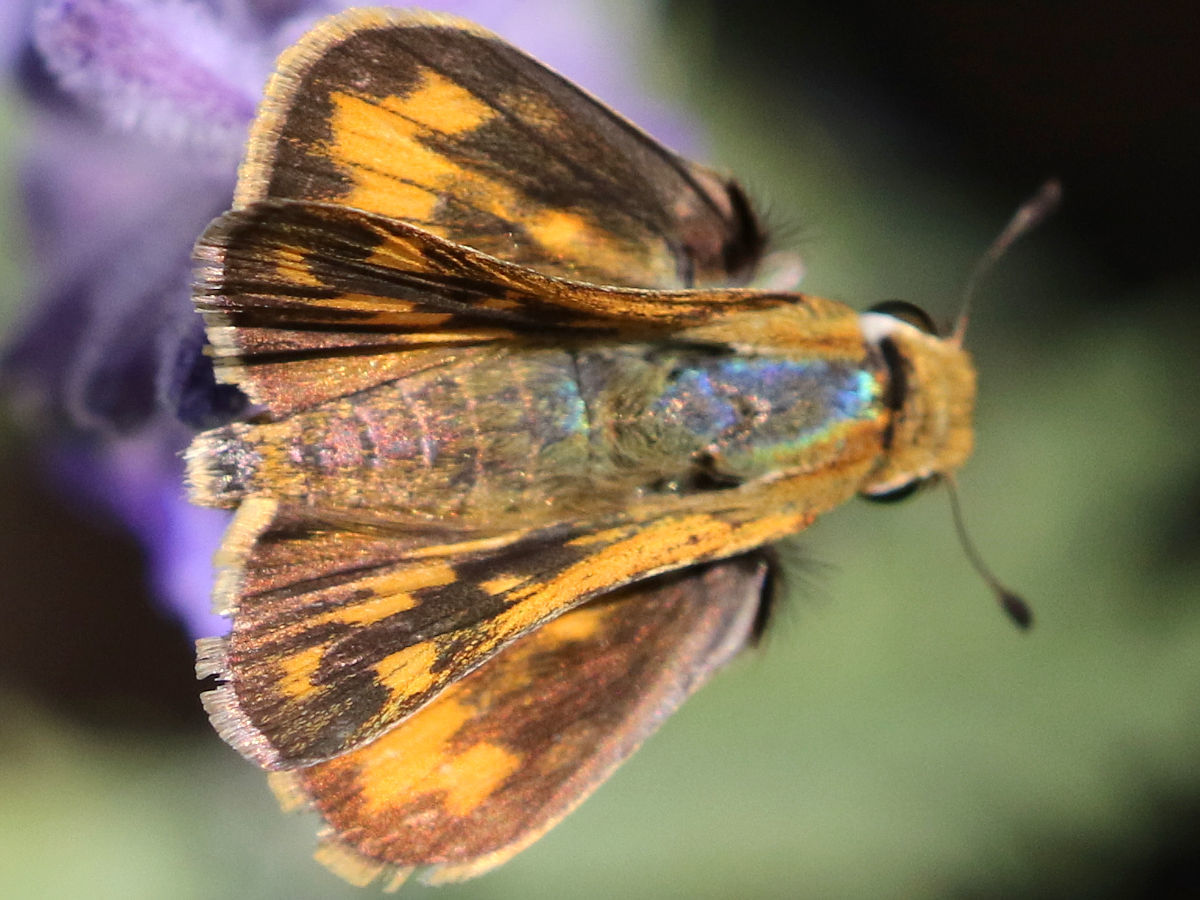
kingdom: Animalia
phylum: Arthropoda
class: Insecta
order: Lepidoptera
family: Hesperiidae
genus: Hylephila
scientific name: Hylephila phyleus
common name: Fiery skipper
